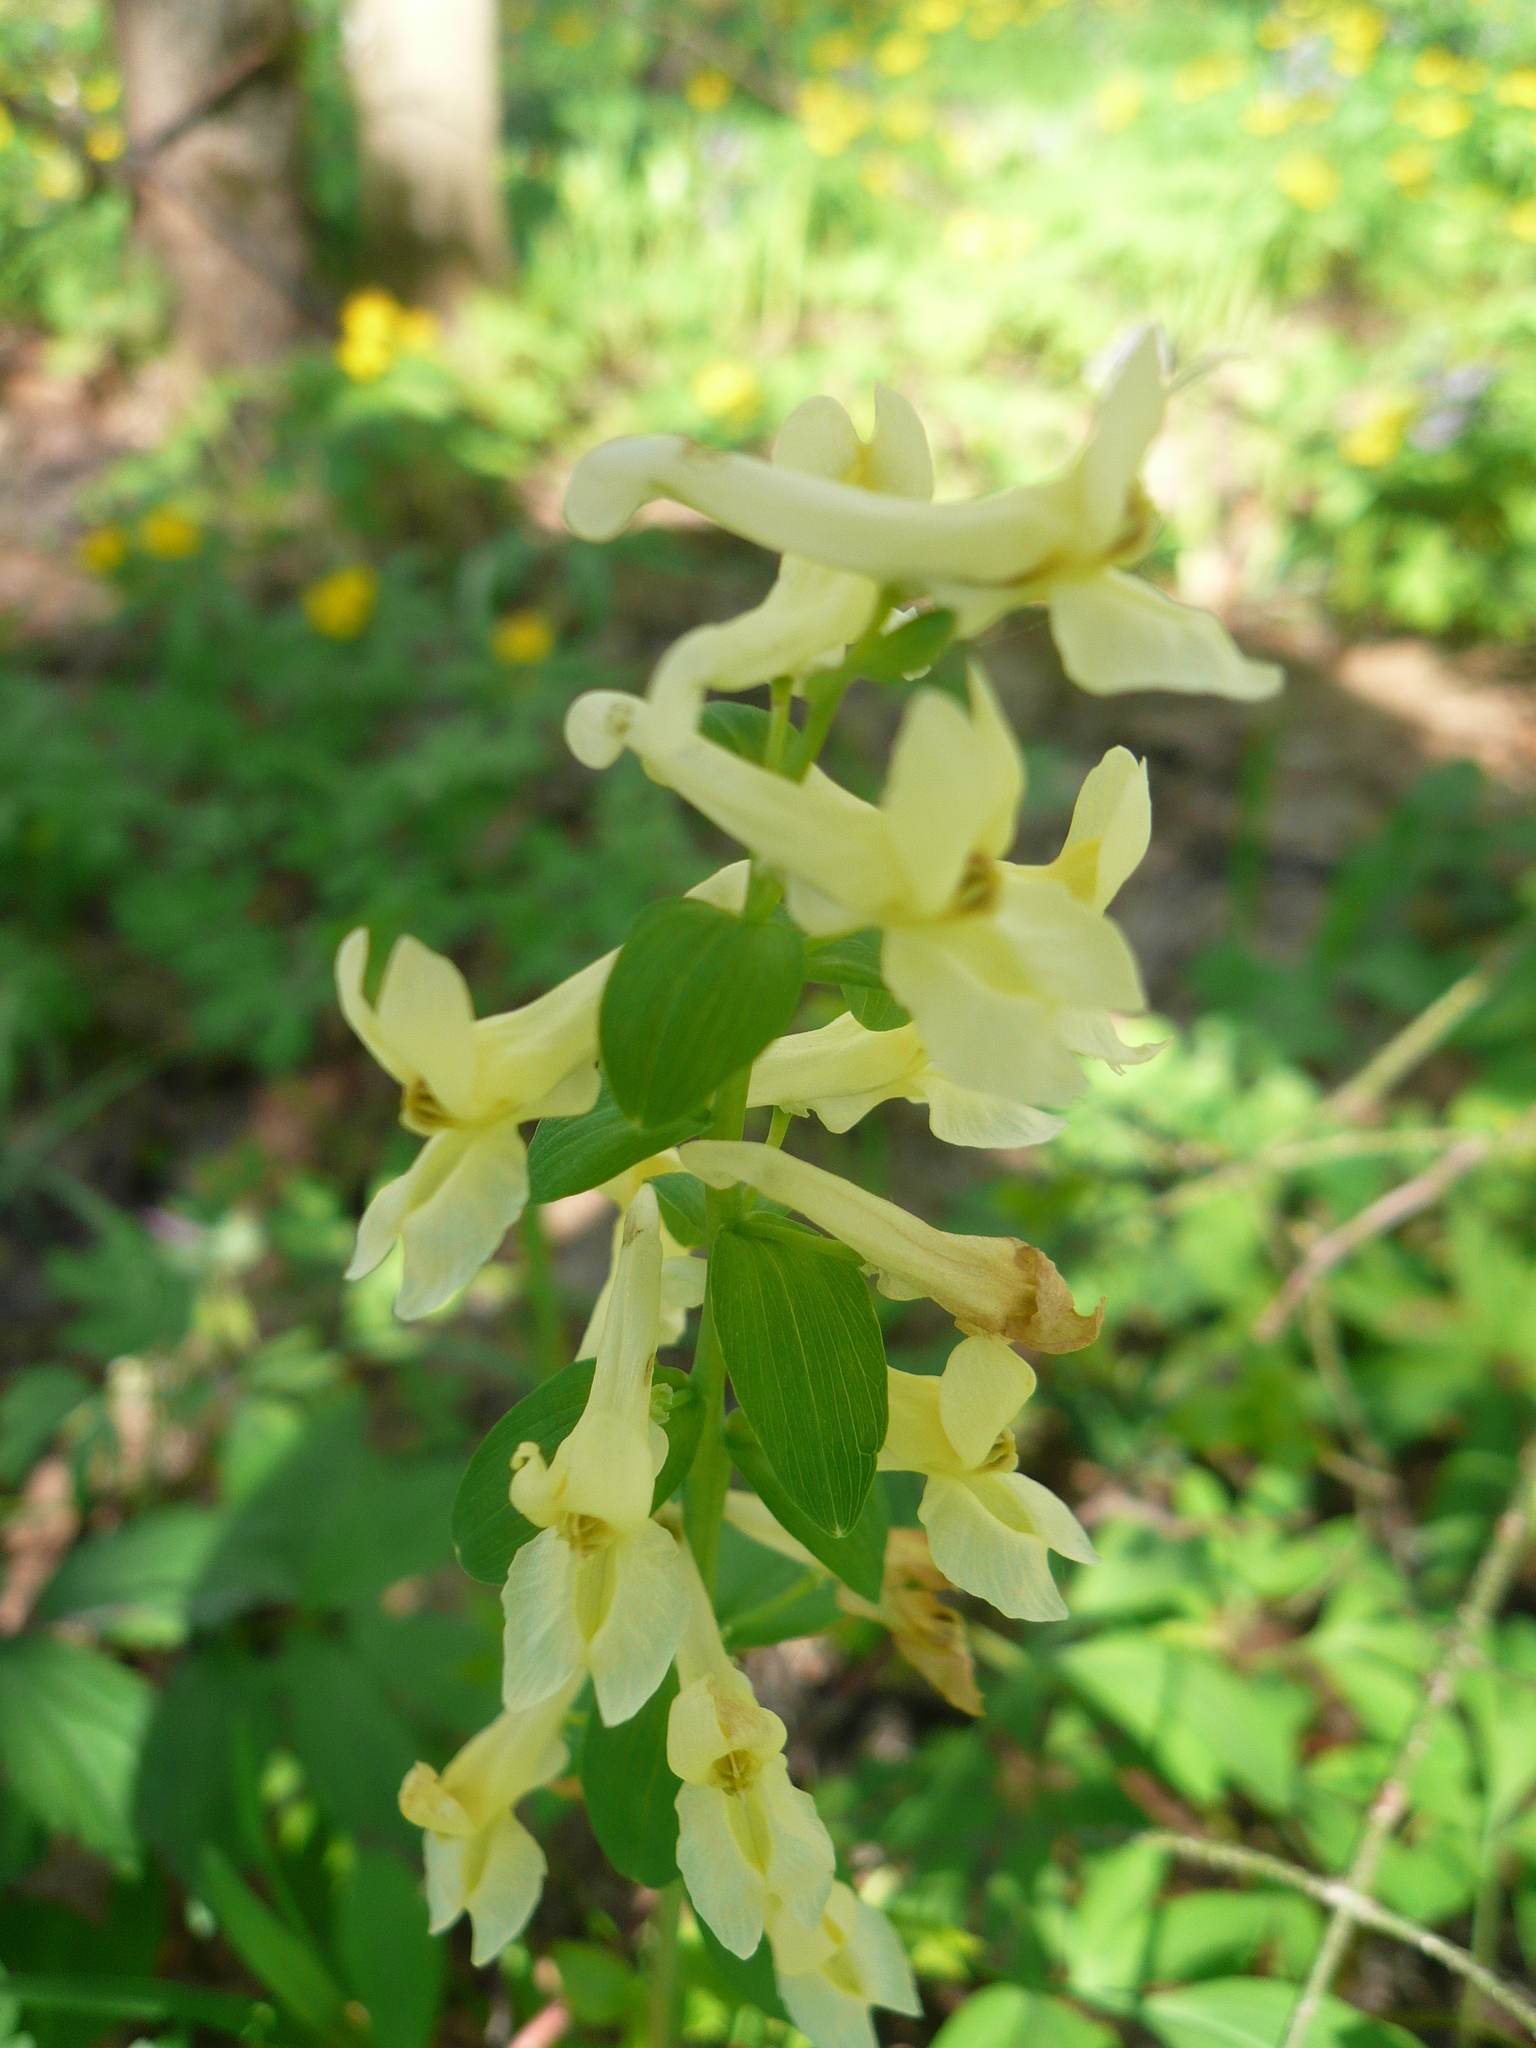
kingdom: Plantae
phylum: Tracheophyta
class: Magnoliopsida
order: Ranunculales
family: Papaveraceae
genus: Corydalis
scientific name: Corydalis cava
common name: Hollowroot
